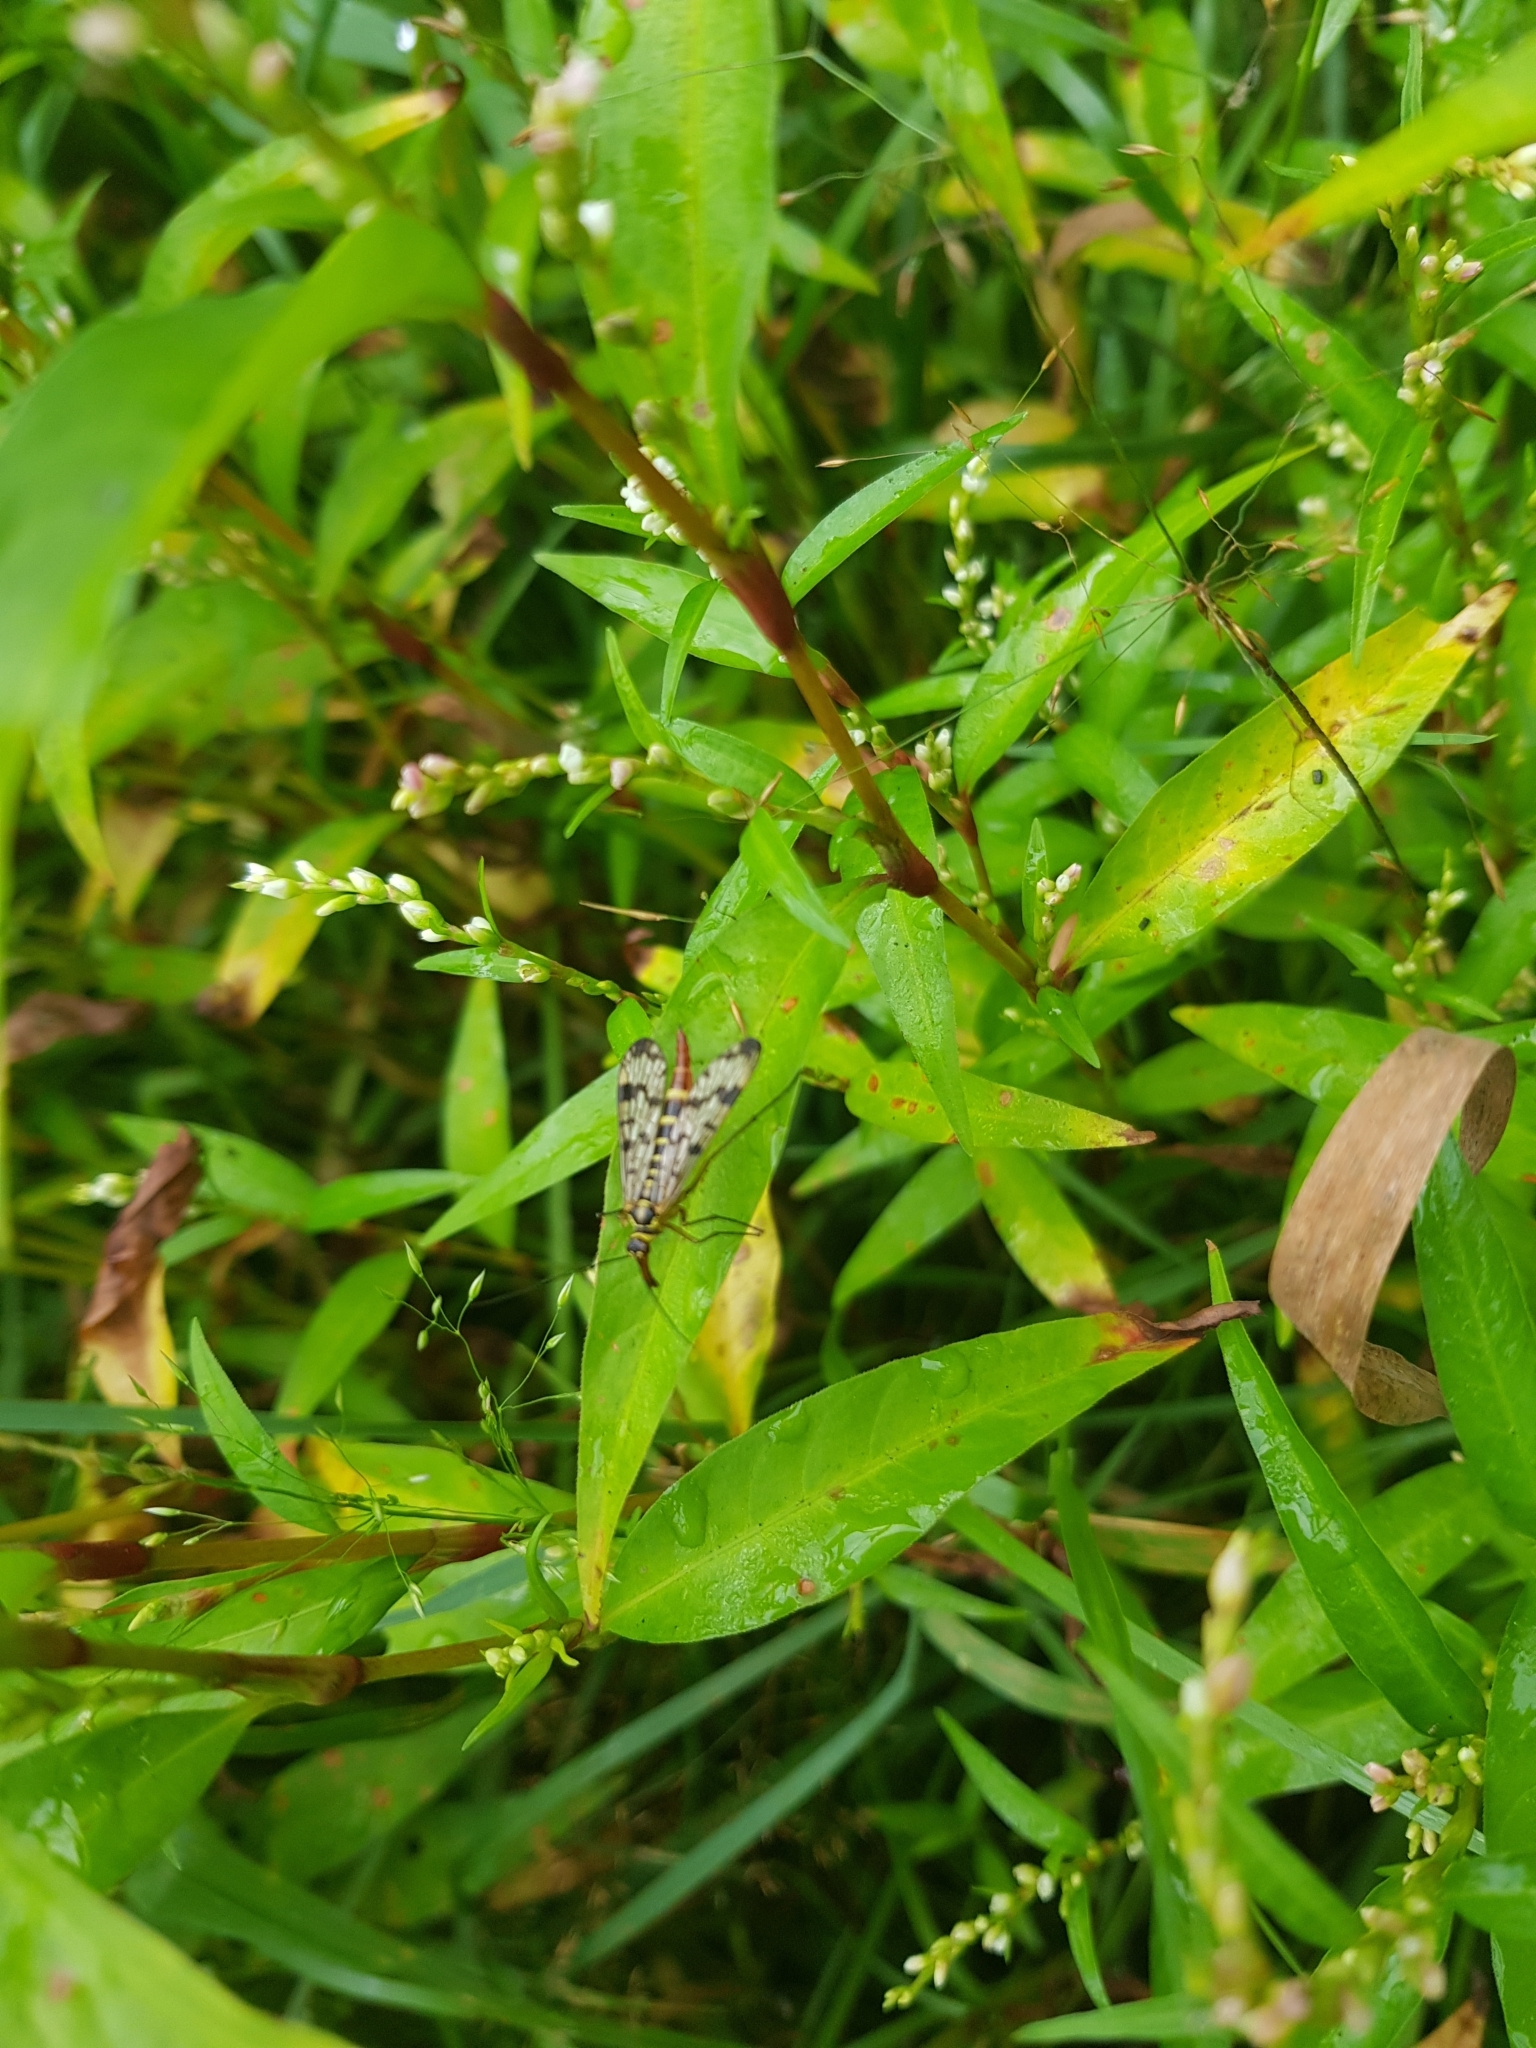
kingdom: Animalia
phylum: Arthropoda
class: Insecta
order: Mecoptera
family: Panorpidae
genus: Panorpa
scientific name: Panorpa communis
